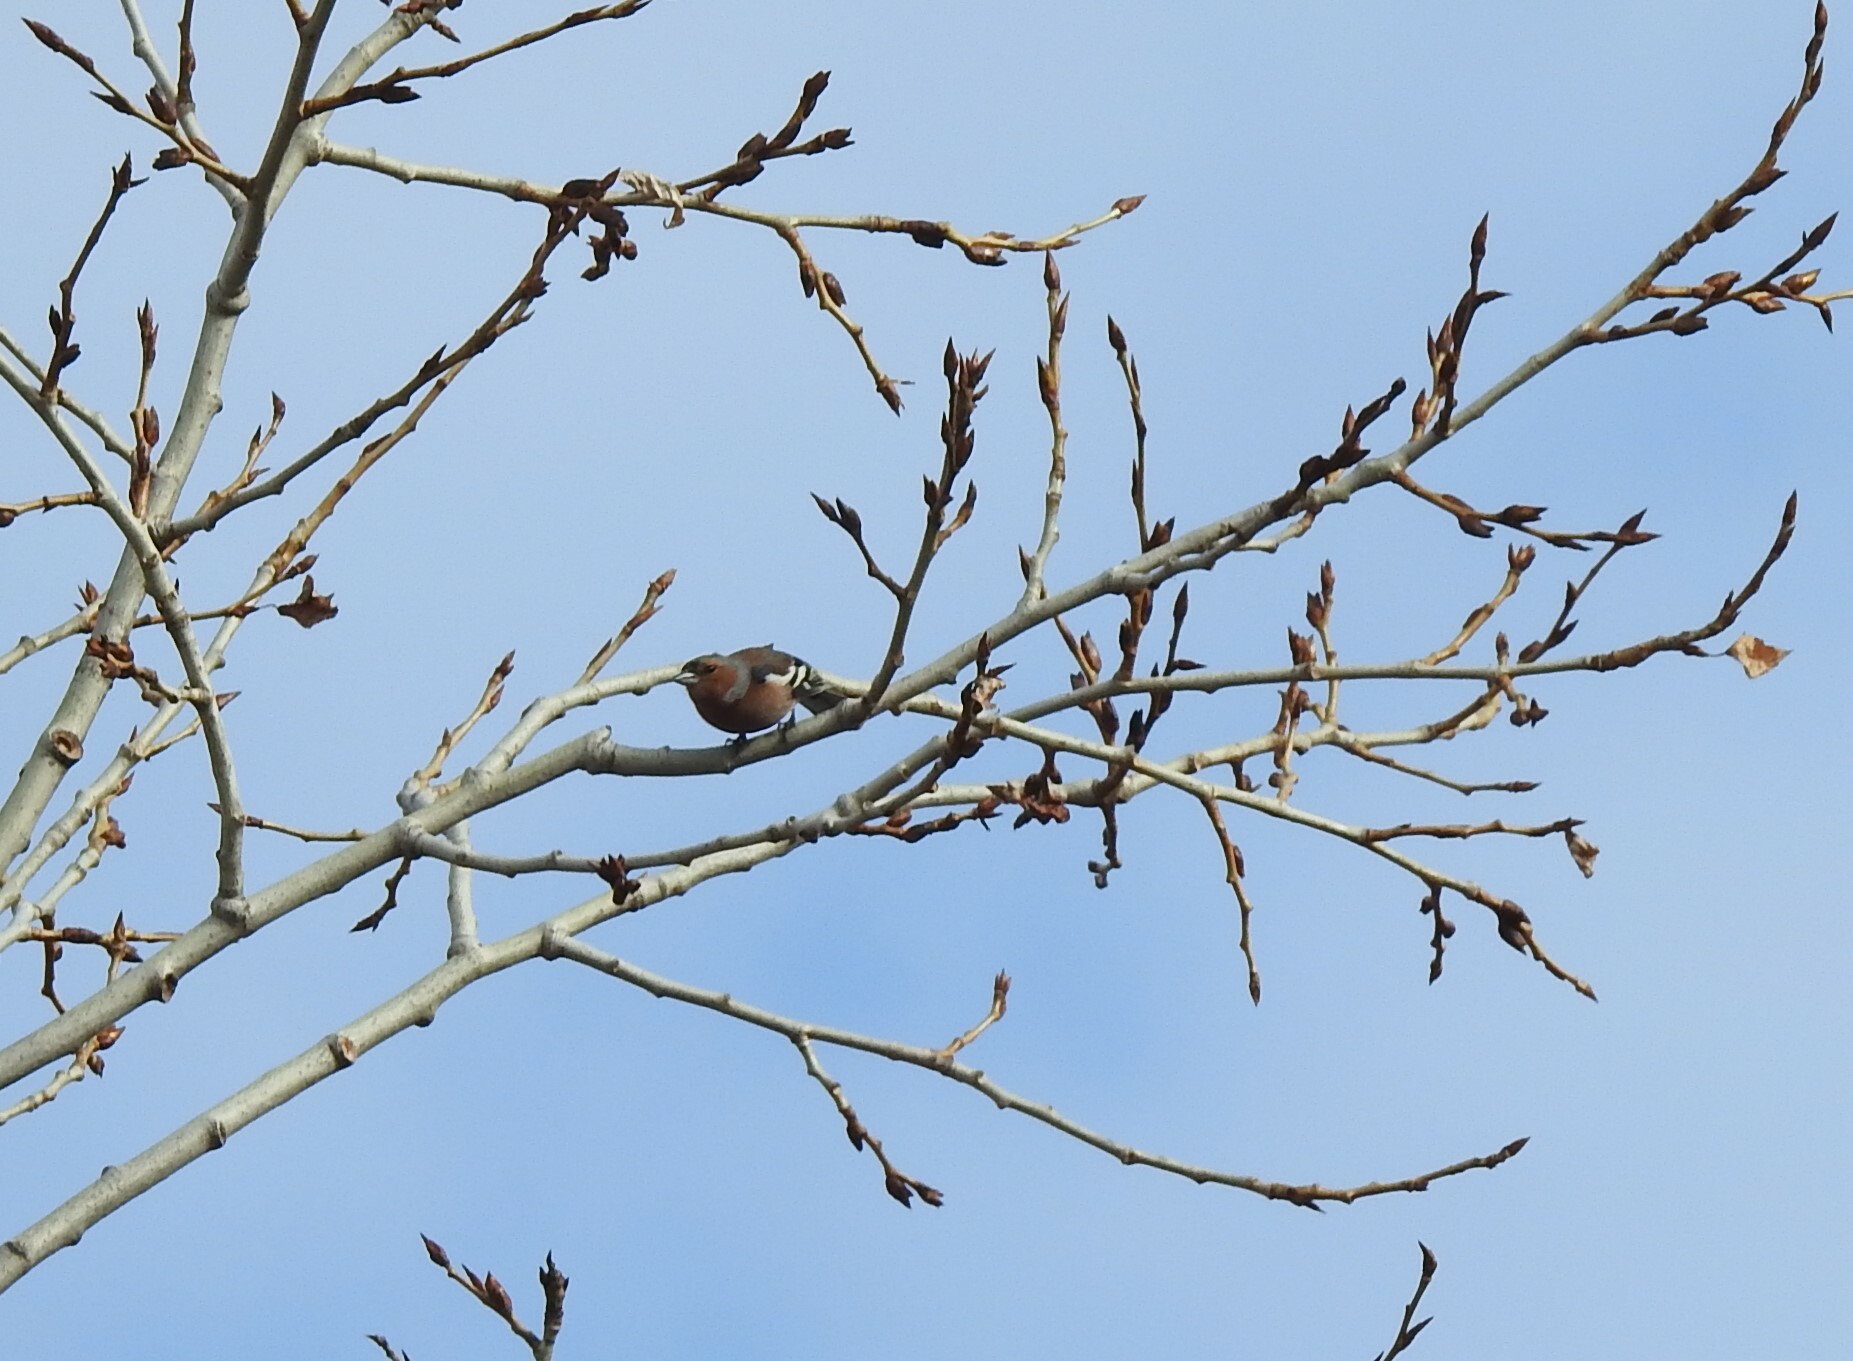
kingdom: Animalia
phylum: Chordata
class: Aves
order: Passeriformes
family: Fringillidae
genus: Fringilla
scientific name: Fringilla coelebs
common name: Common chaffinch
